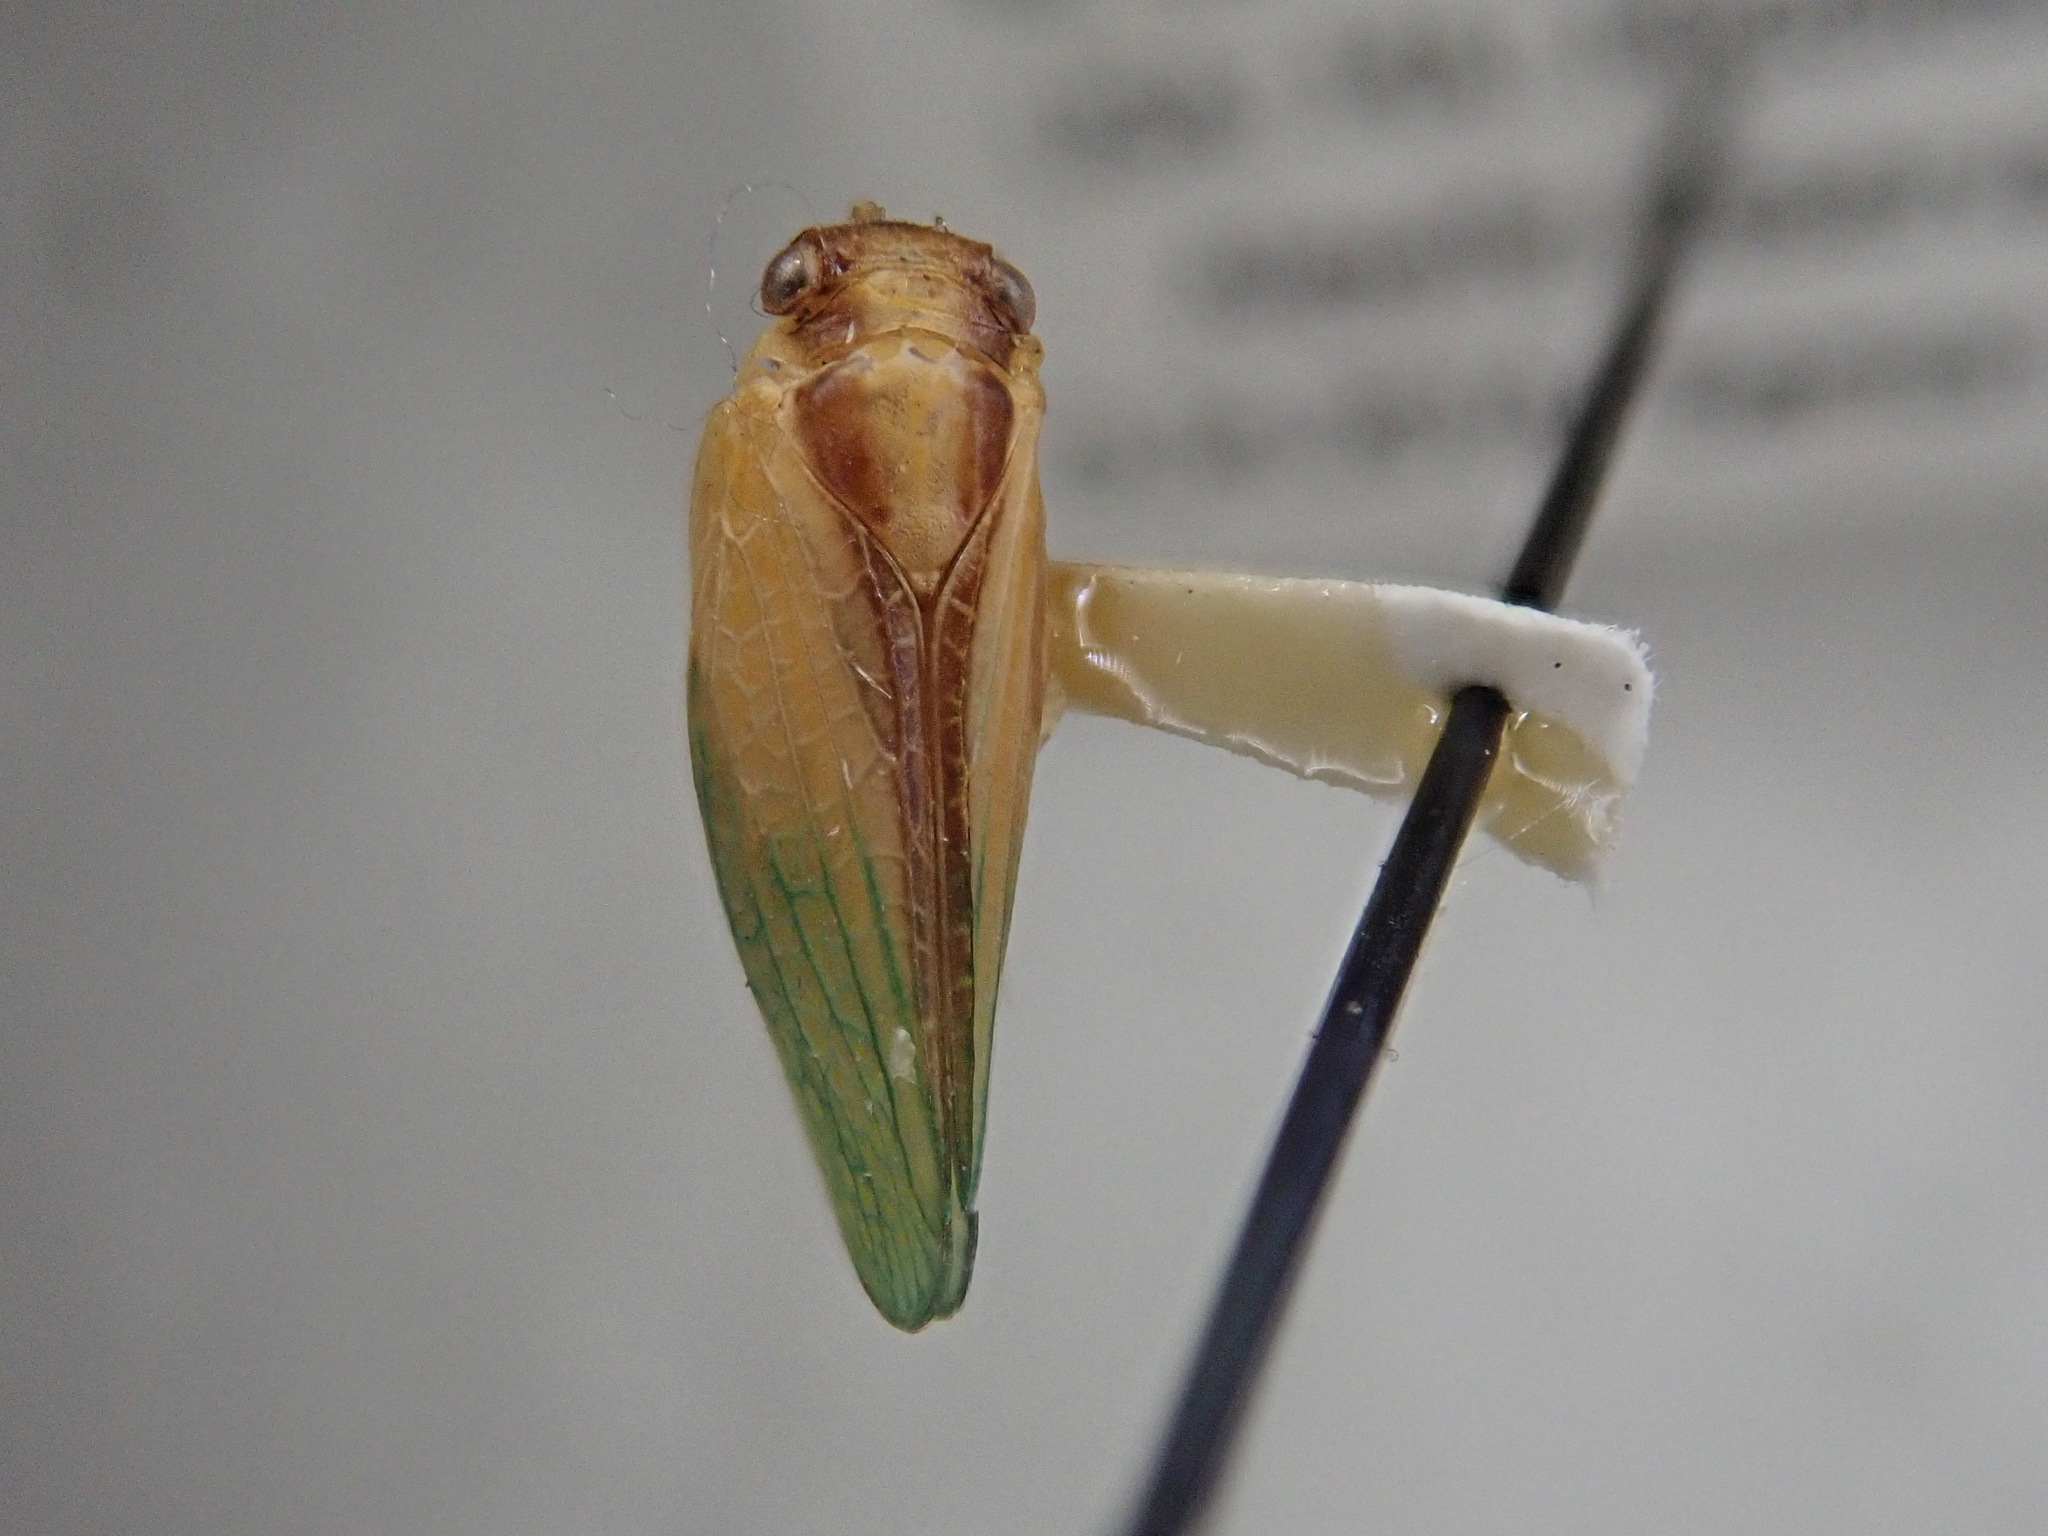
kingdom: Animalia
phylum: Arthropoda
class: Insecta
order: Hemiptera
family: Acanaloniidae
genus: Acanalonia
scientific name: Acanalonia bivittata
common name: Two-striped planthopper
